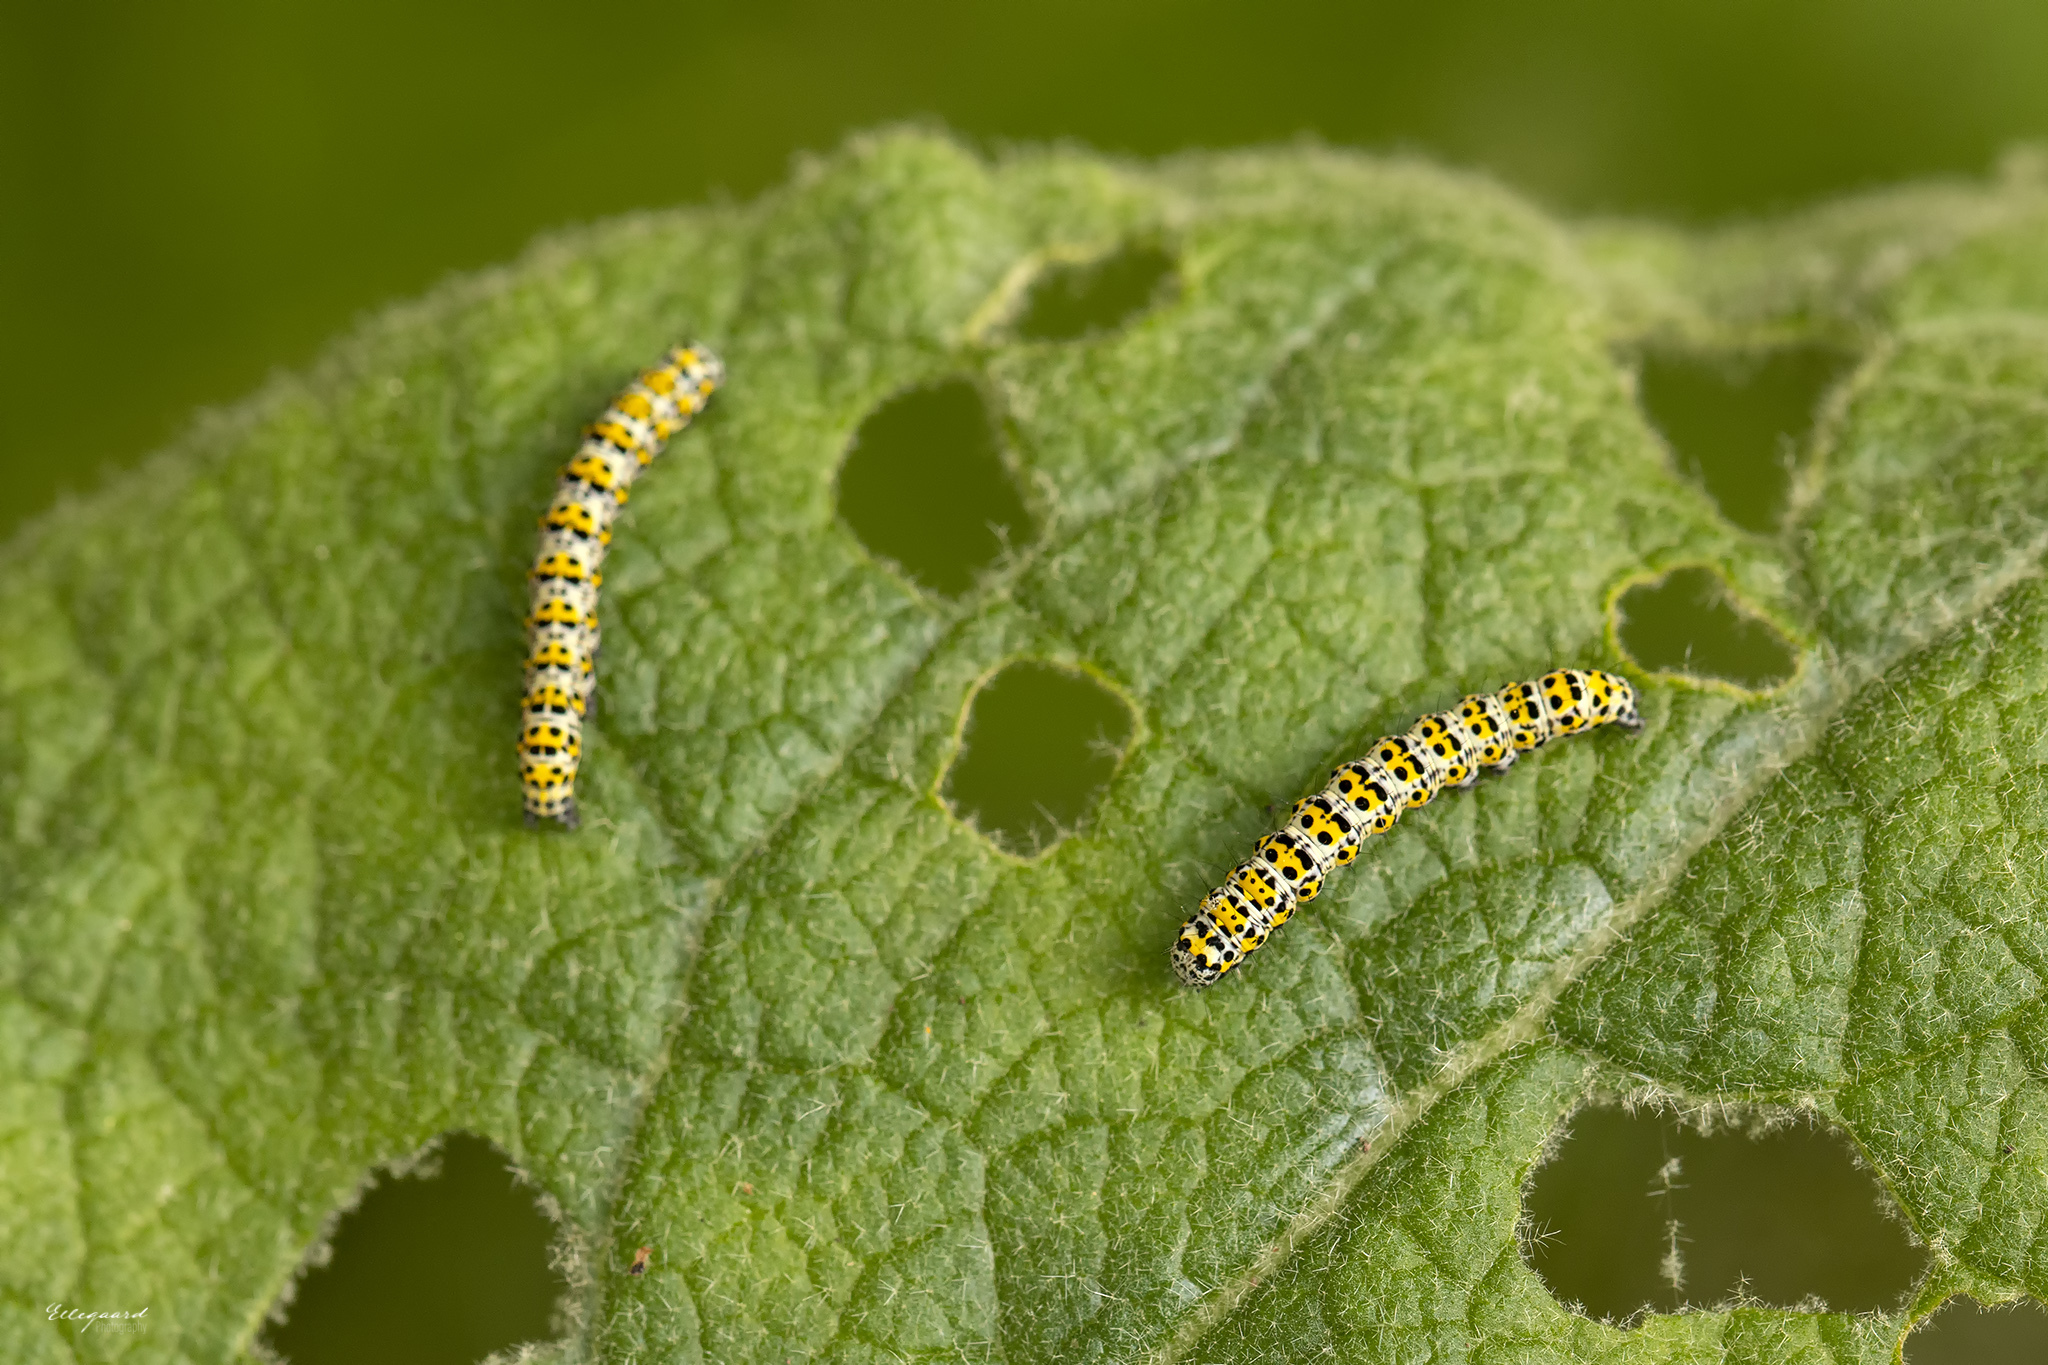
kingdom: Animalia
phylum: Arthropoda
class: Insecta
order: Lepidoptera
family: Noctuidae
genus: Cucullia
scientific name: Cucullia verbasci
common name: Mullein
